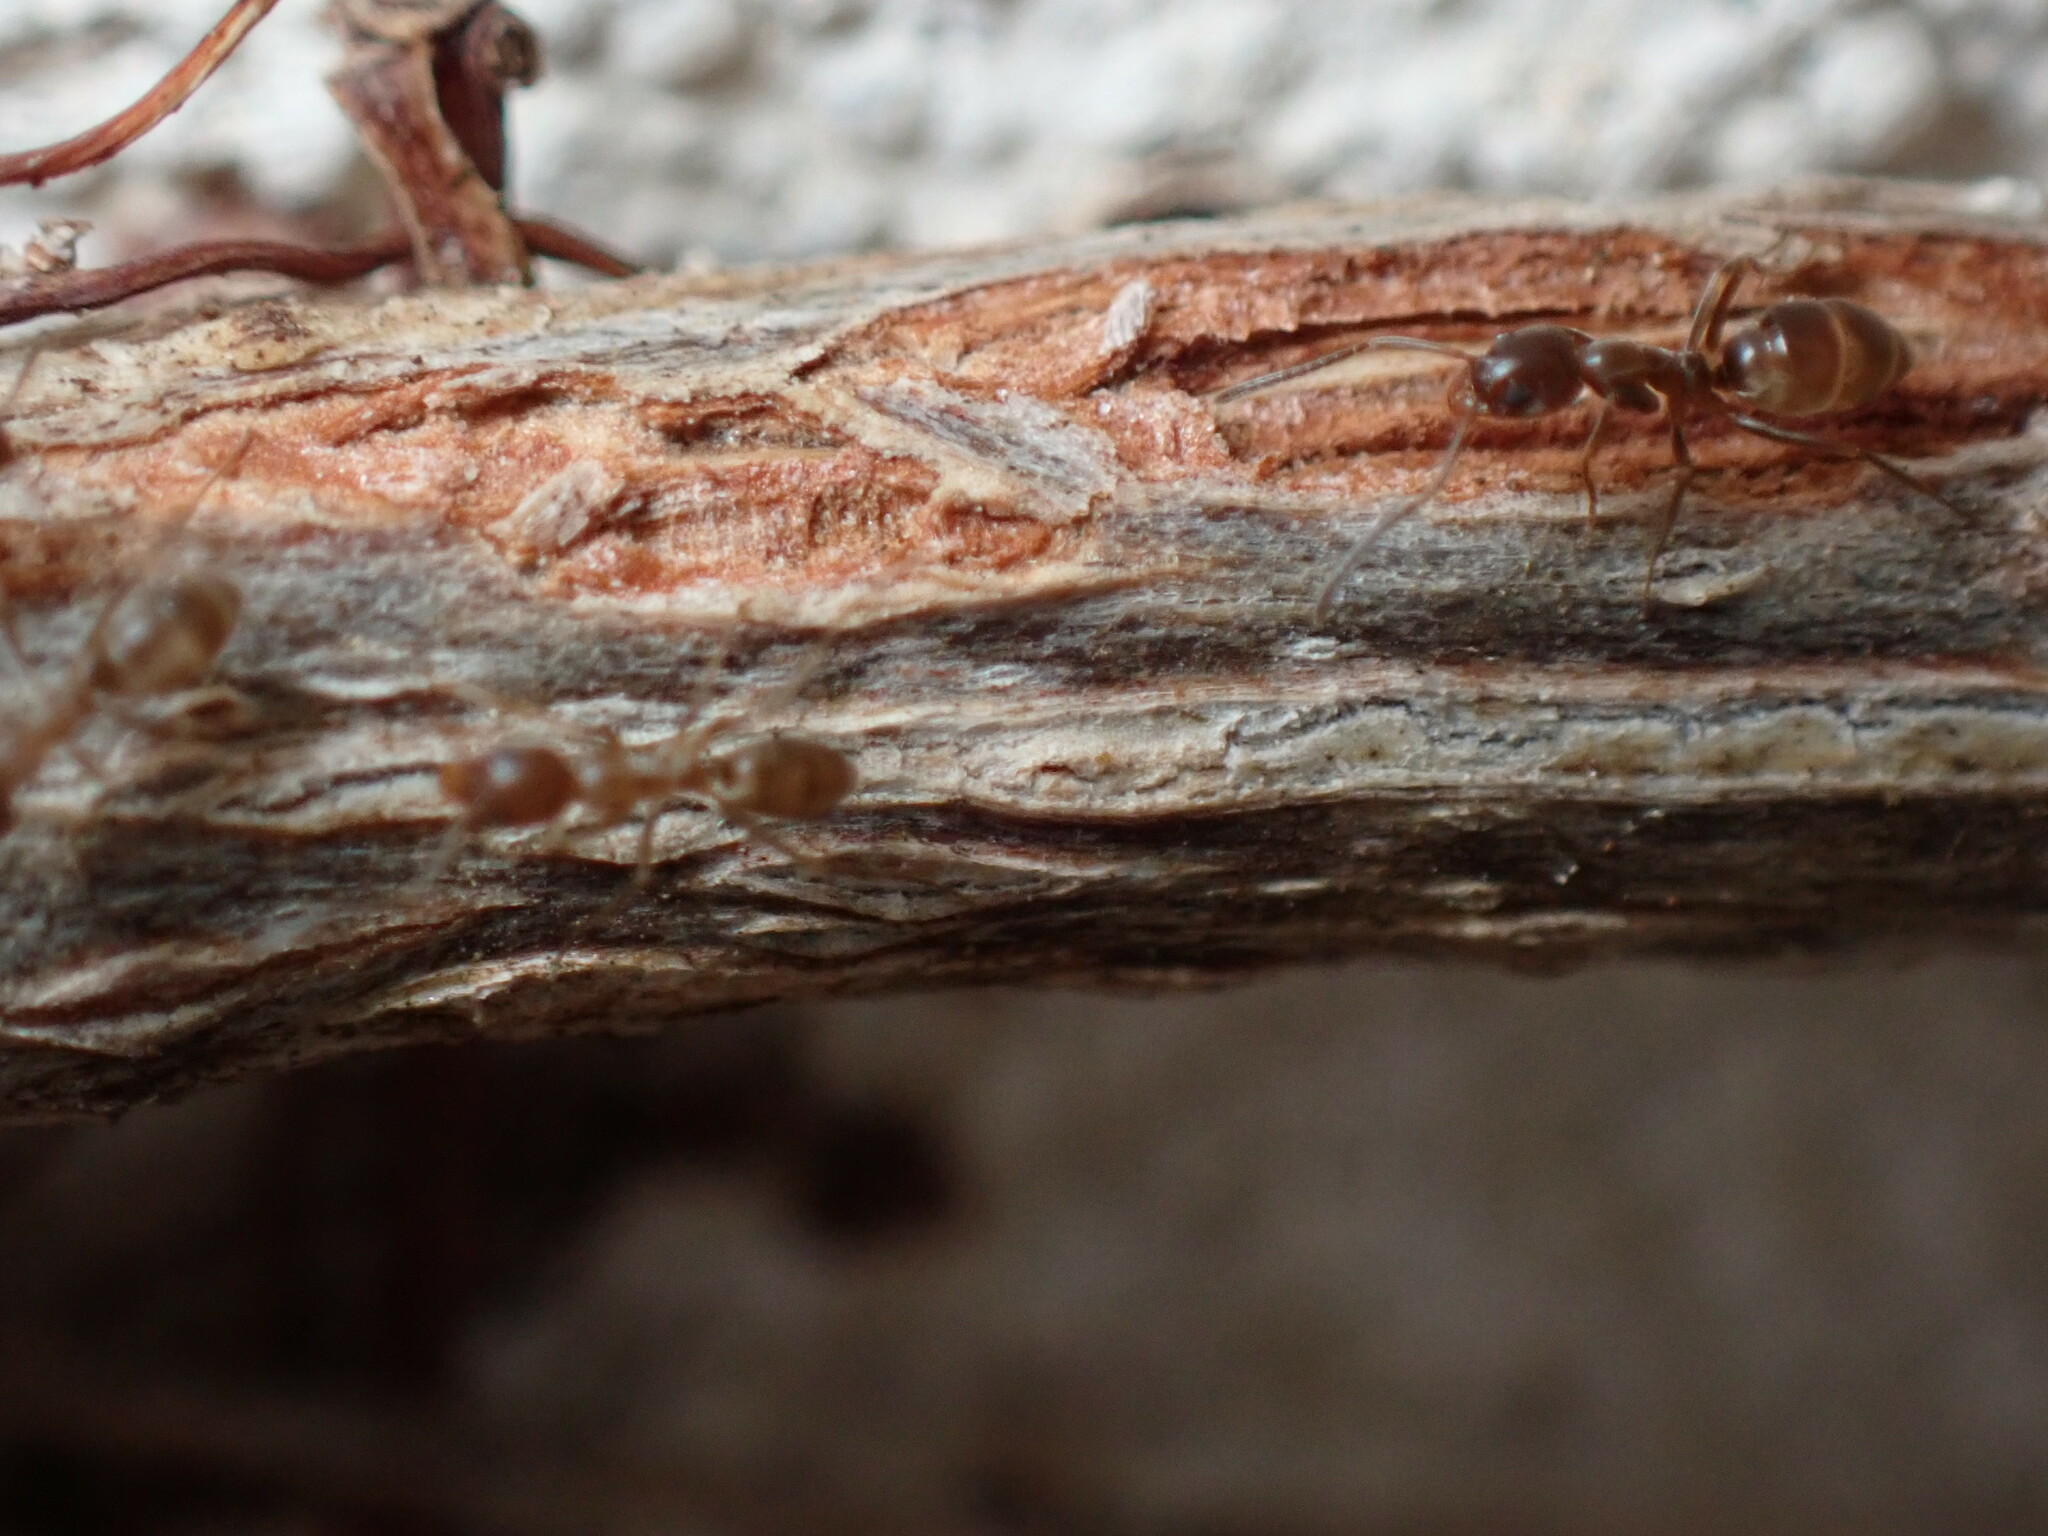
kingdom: Animalia
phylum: Arthropoda
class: Insecta
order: Hymenoptera
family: Formicidae
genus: Linepithema
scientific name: Linepithema humile
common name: Argentine ant
